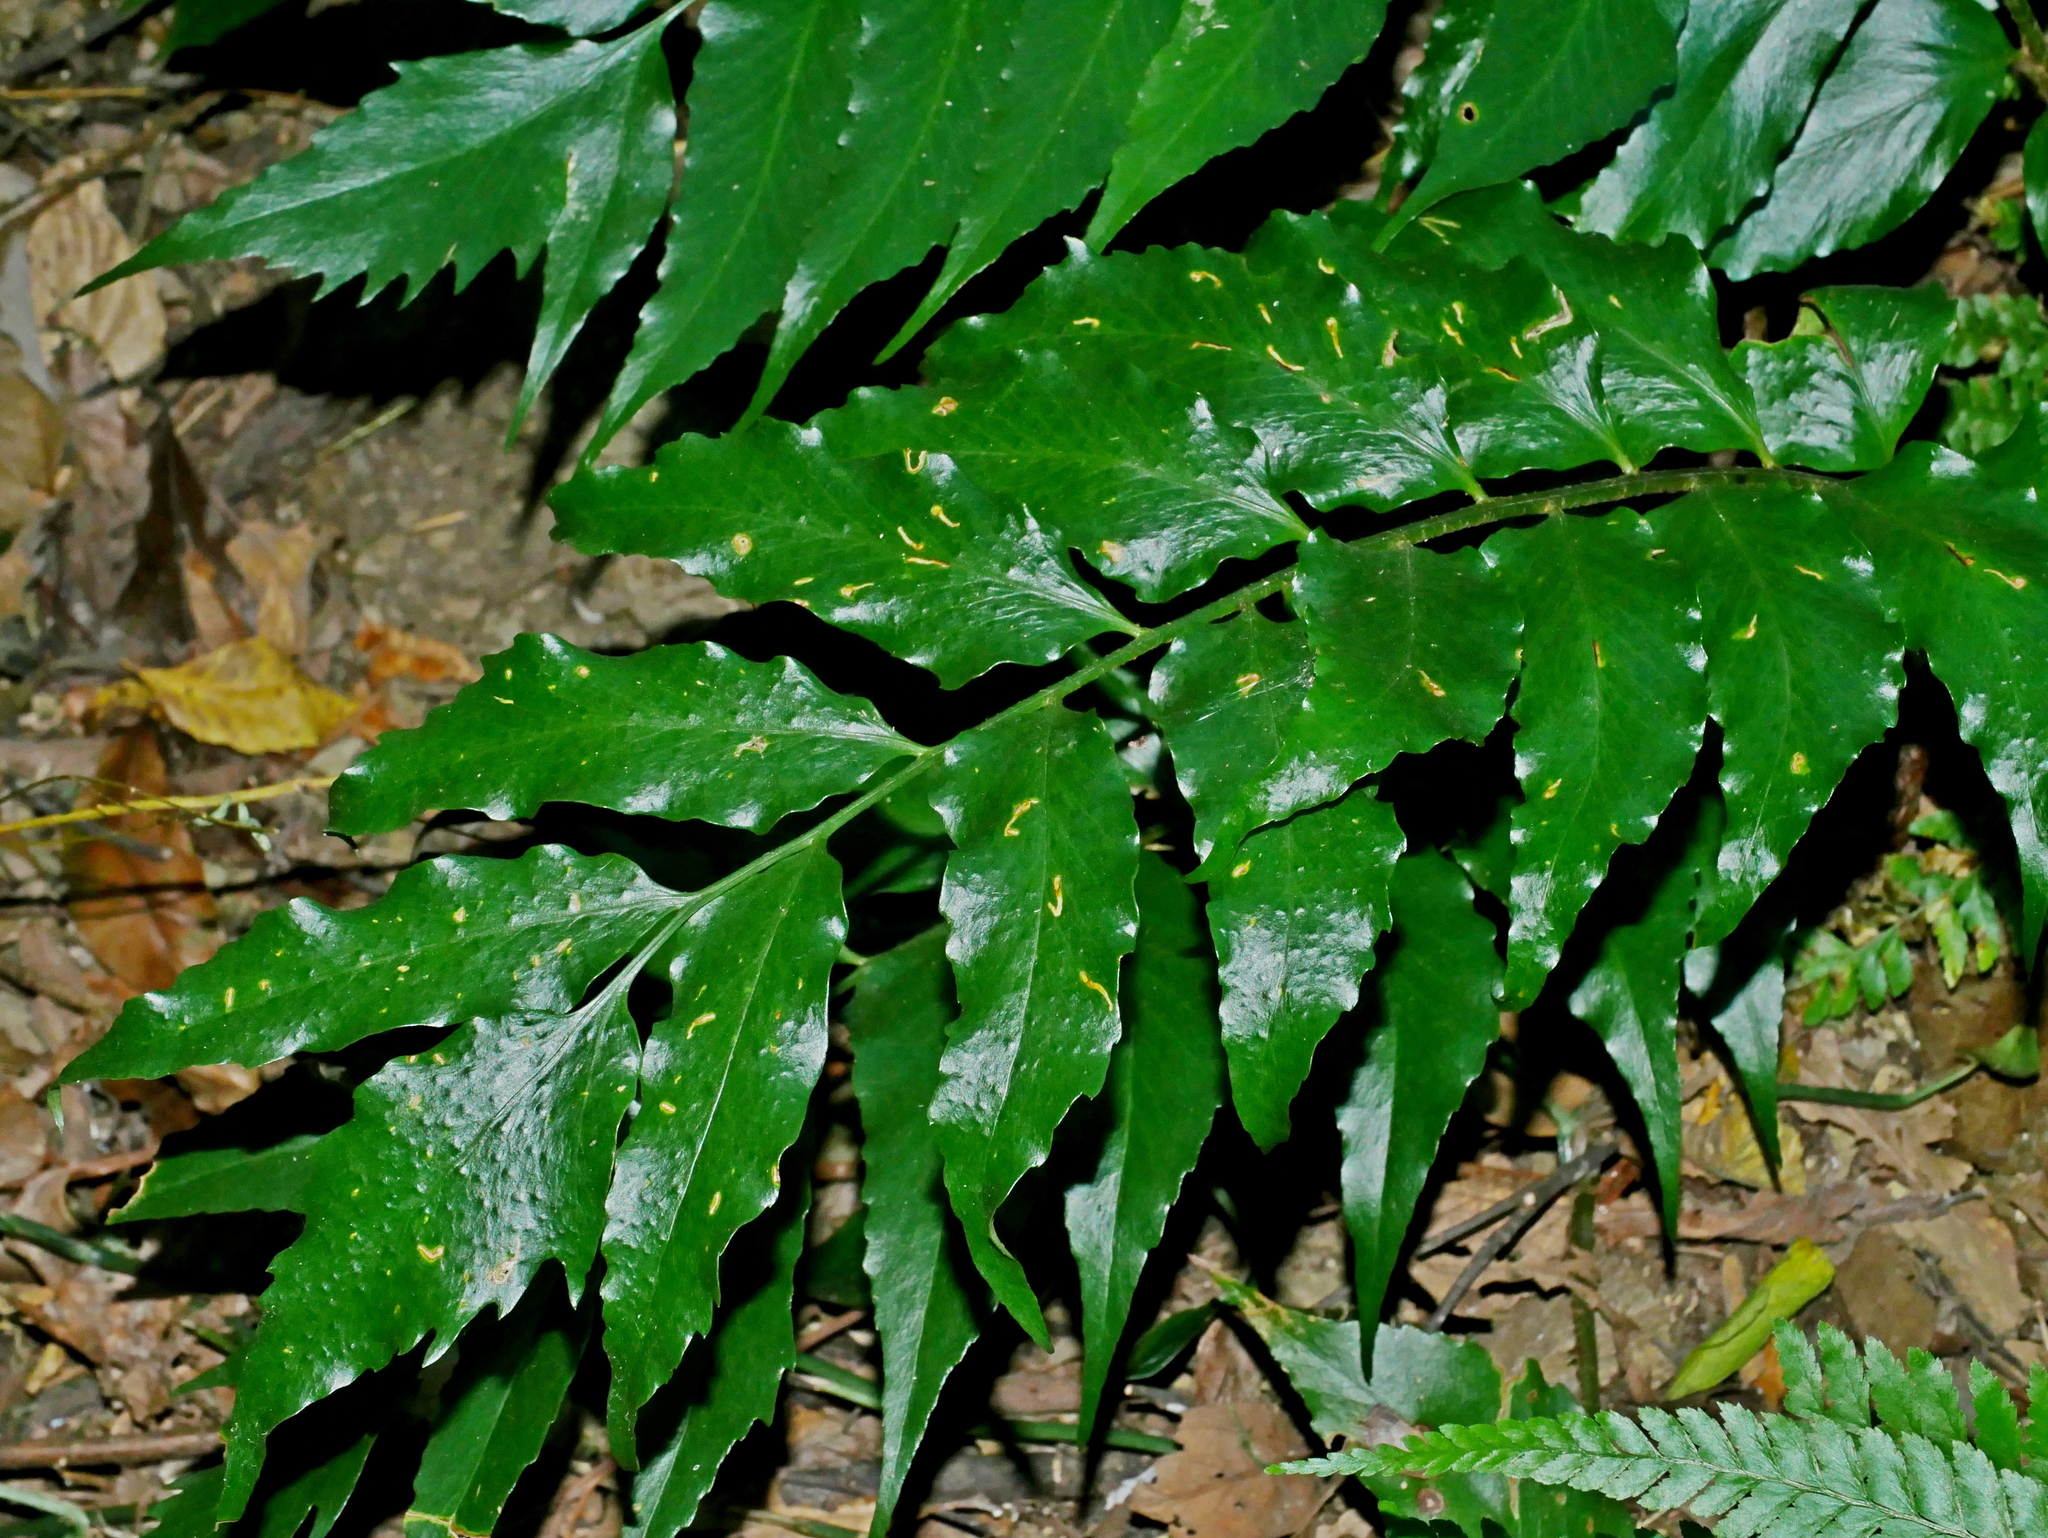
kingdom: Plantae
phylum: Tracheophyta
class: Polypodiopsida
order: Polypodiales
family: Dryopteridaceae
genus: Cyrtomium
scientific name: Cyrtomium falcatum
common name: House holly-fern
